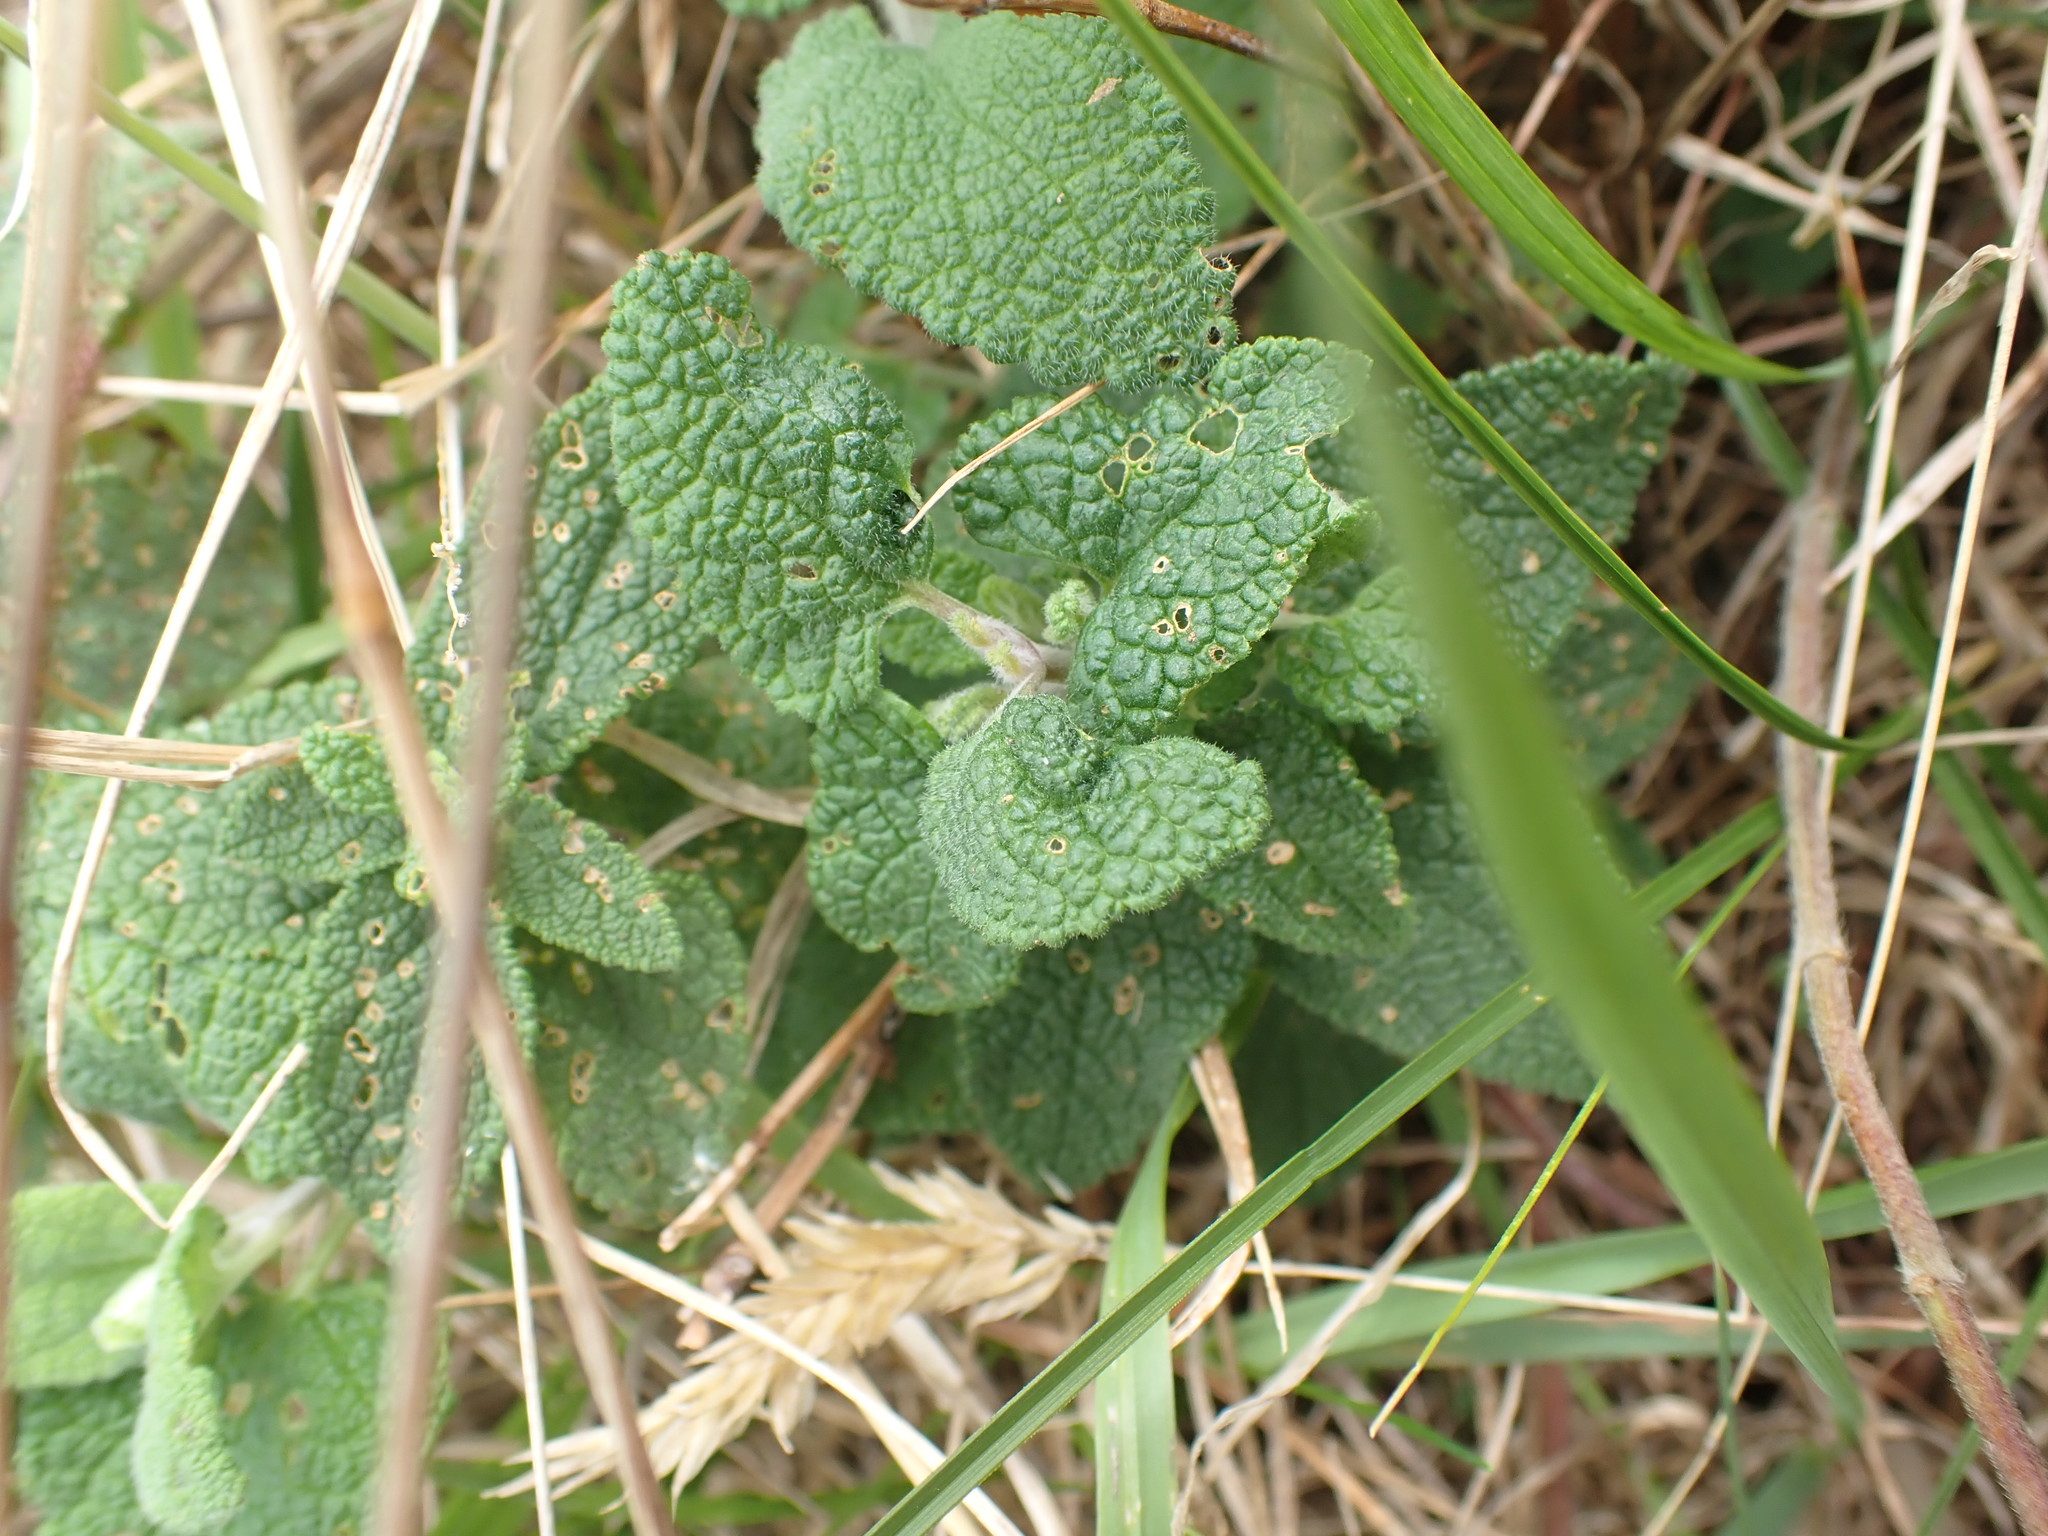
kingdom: Plantae
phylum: Tracheophyta
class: Magnoliopsida
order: Lamiales
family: Lamiaceae
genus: Teucrium
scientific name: Teucrium scorodonia
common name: Woodland germander
